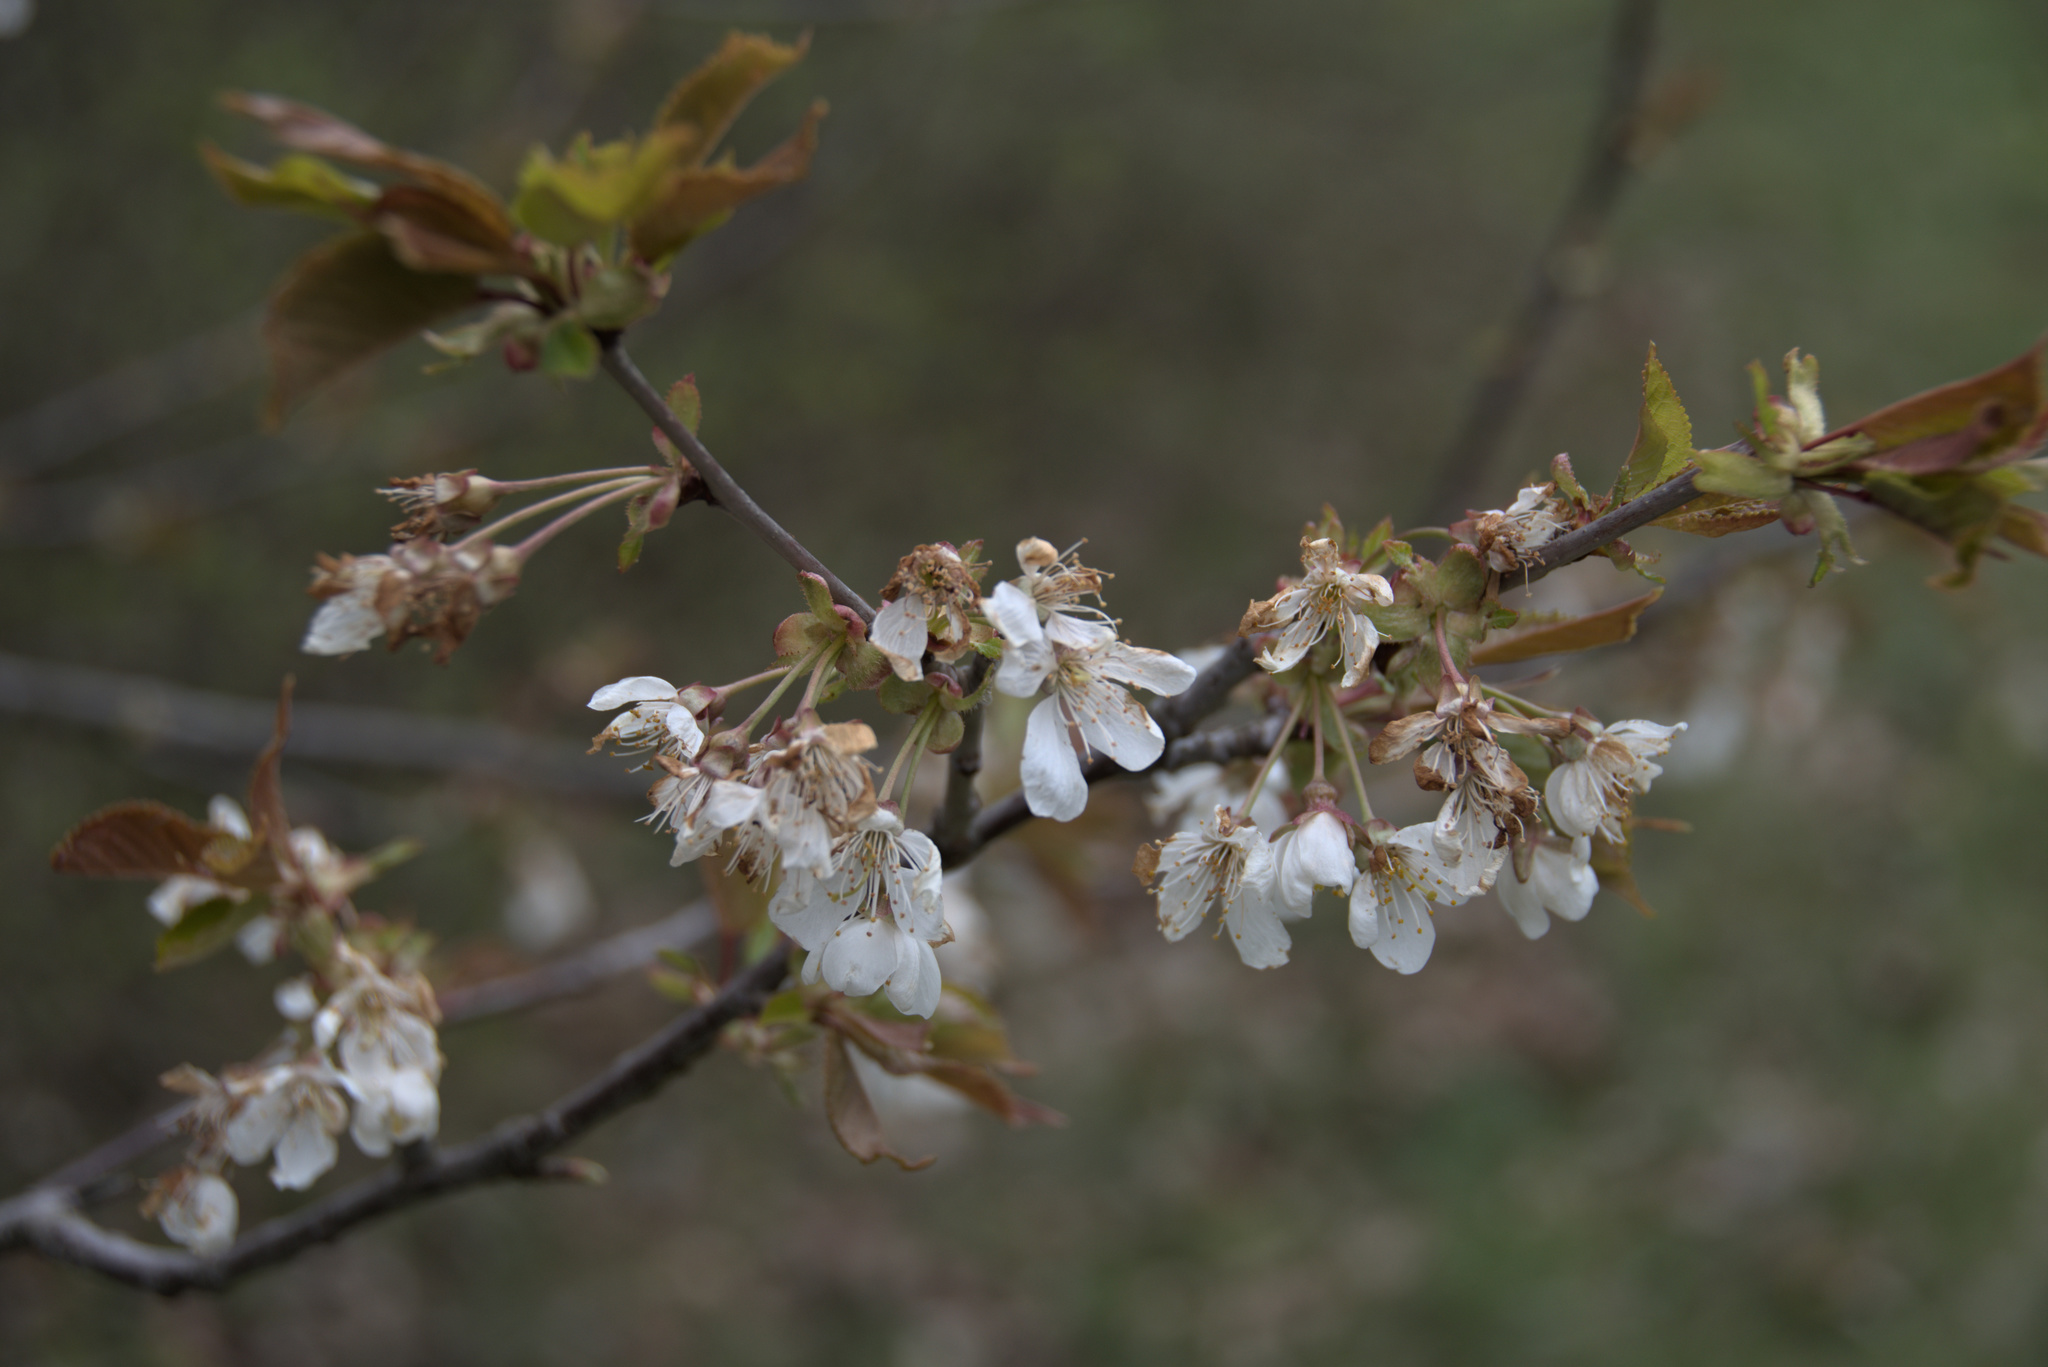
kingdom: Plantae
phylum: Tracheophyta
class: Magnoliopsida
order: Rosales
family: Rosaceae
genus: Prunus
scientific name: Prunus avium
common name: Sweet cherry
